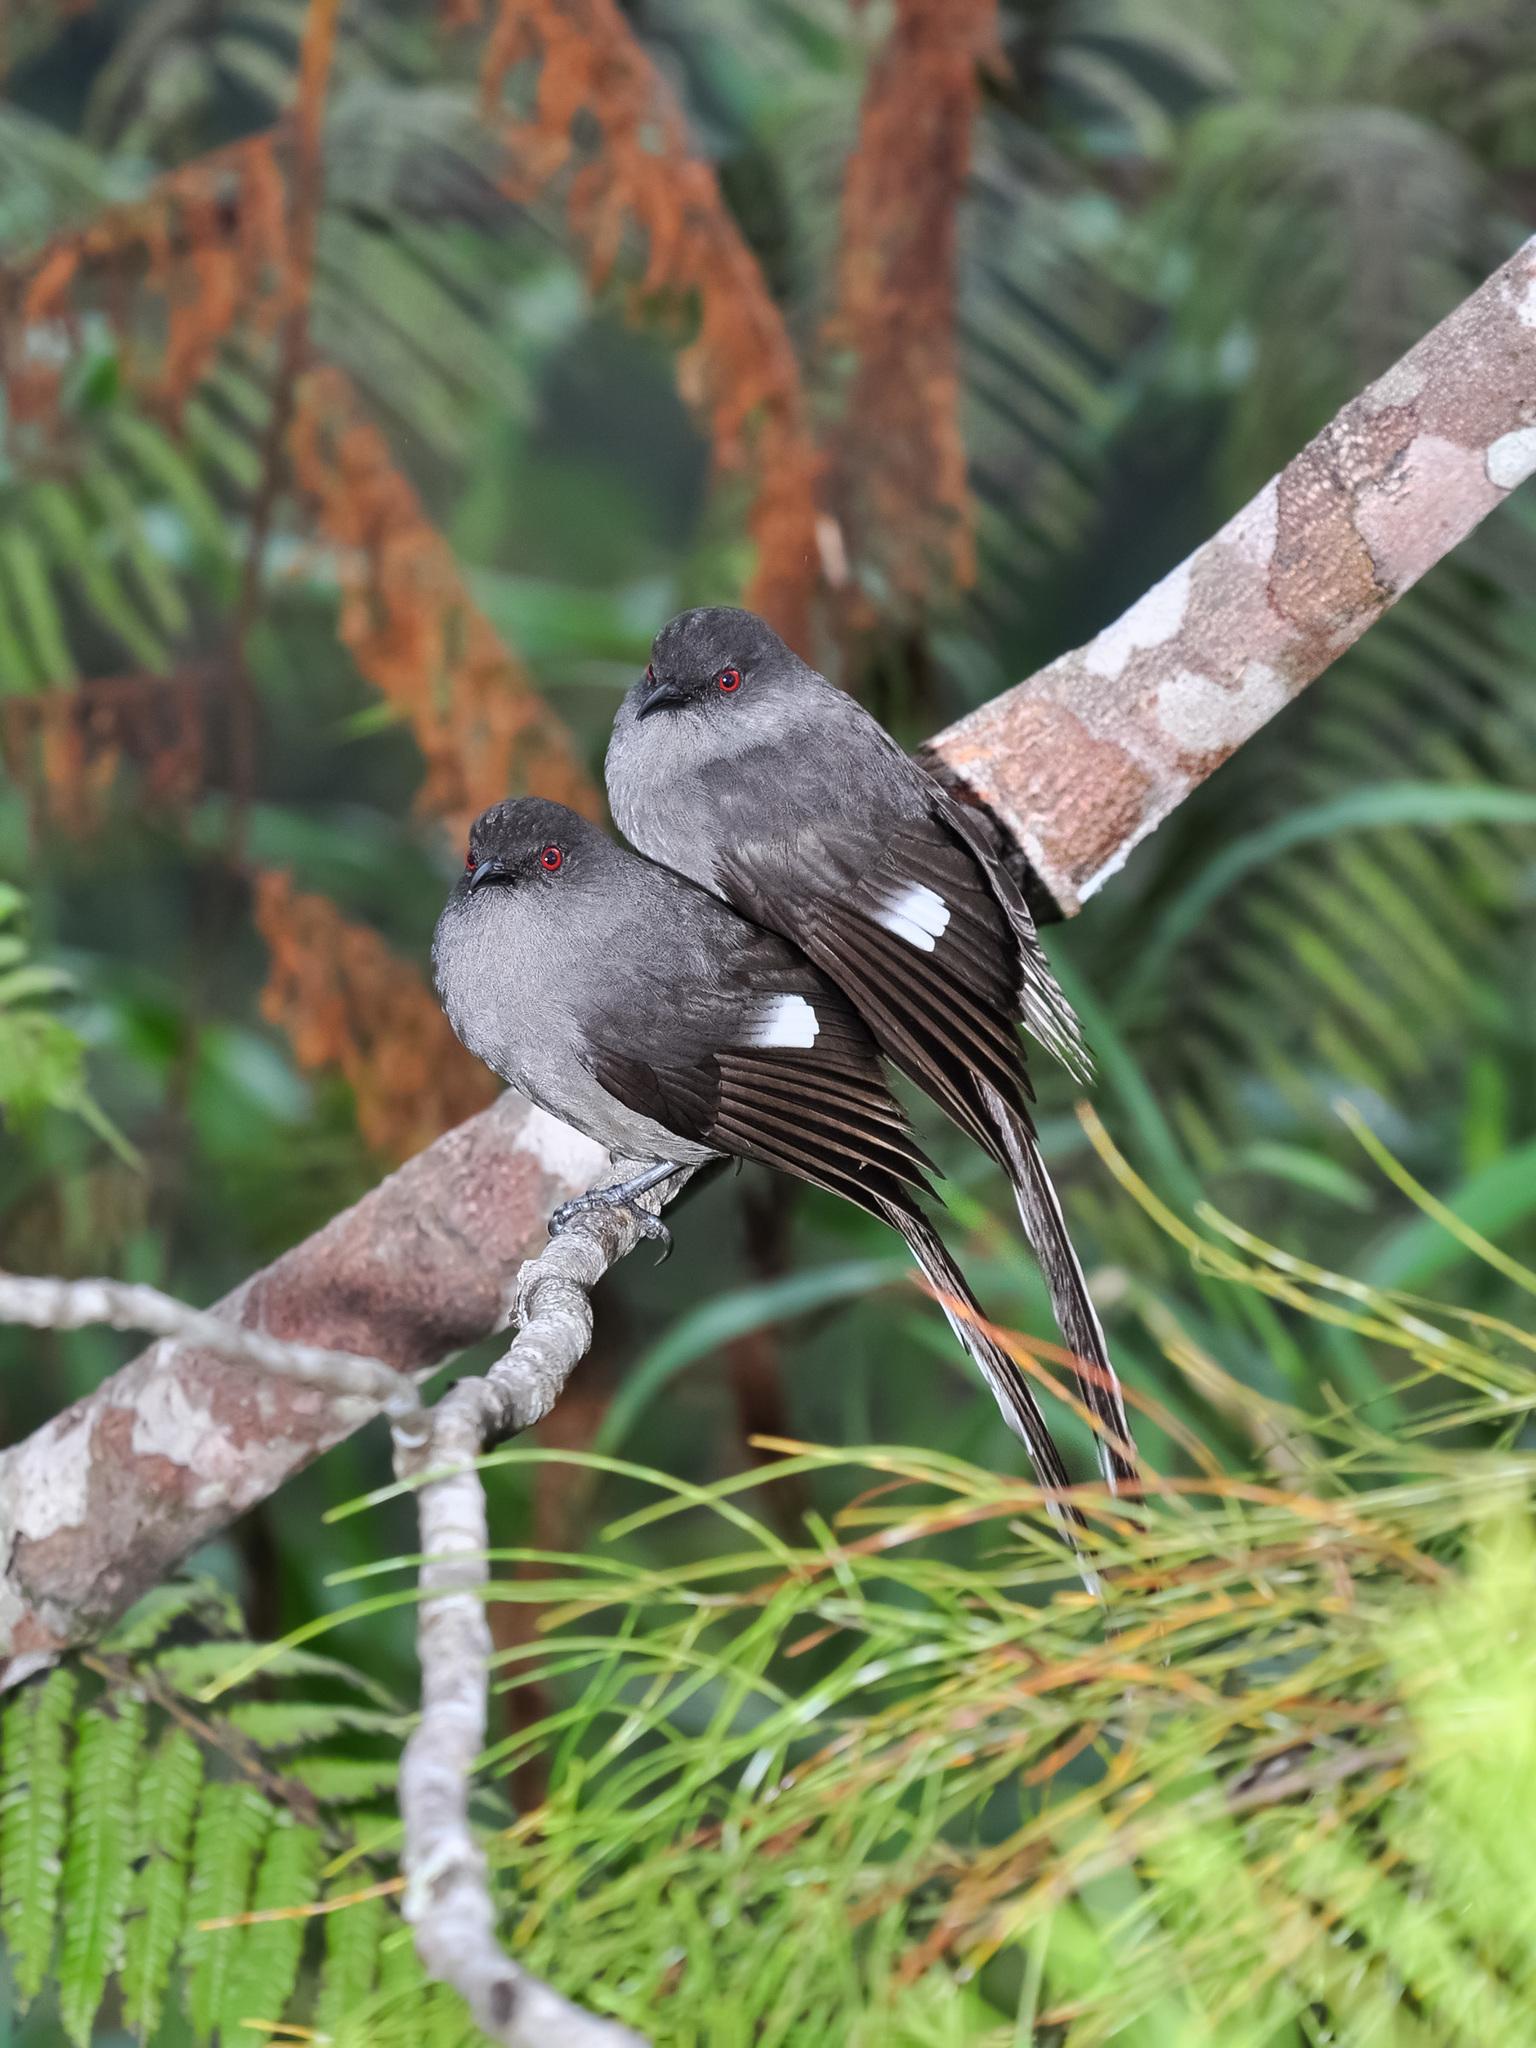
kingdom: Animalia
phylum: Chordata
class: Aves
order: Passeriformes
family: Leiothrichidae
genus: Heterophasia
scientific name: Heterophasia picaoides
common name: Long-tailed sibia
